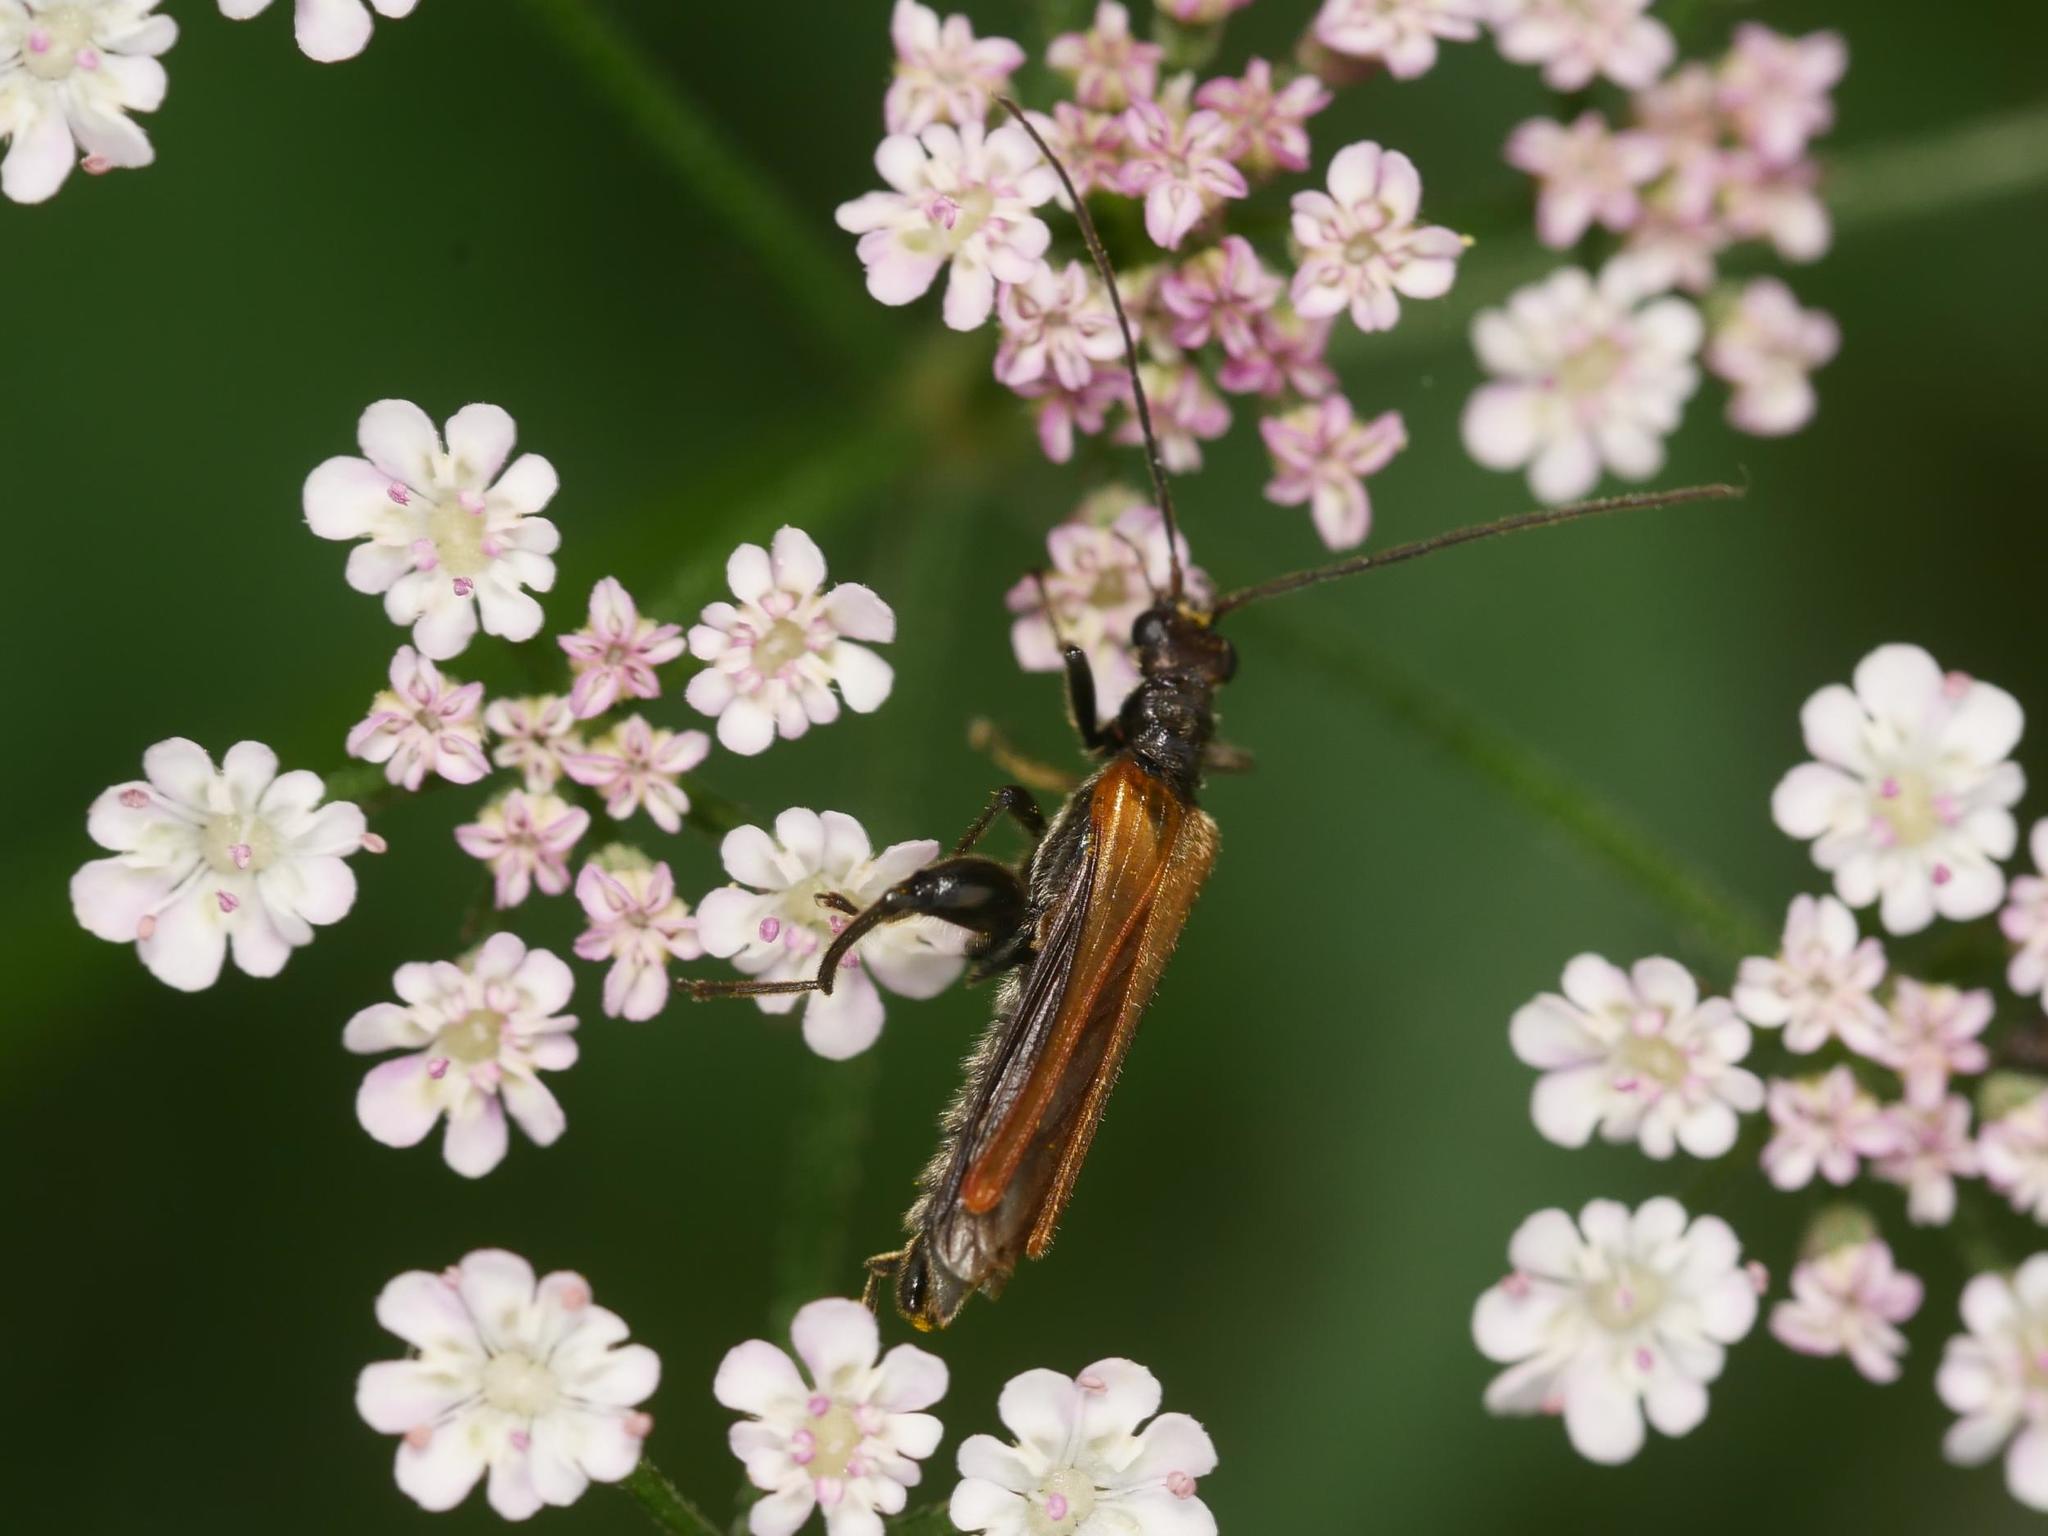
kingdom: Animalia
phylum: Arthropoda
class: Insecta
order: Coleoptera
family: Oedemeridae
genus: Oedemera
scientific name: Oedemera femorata
